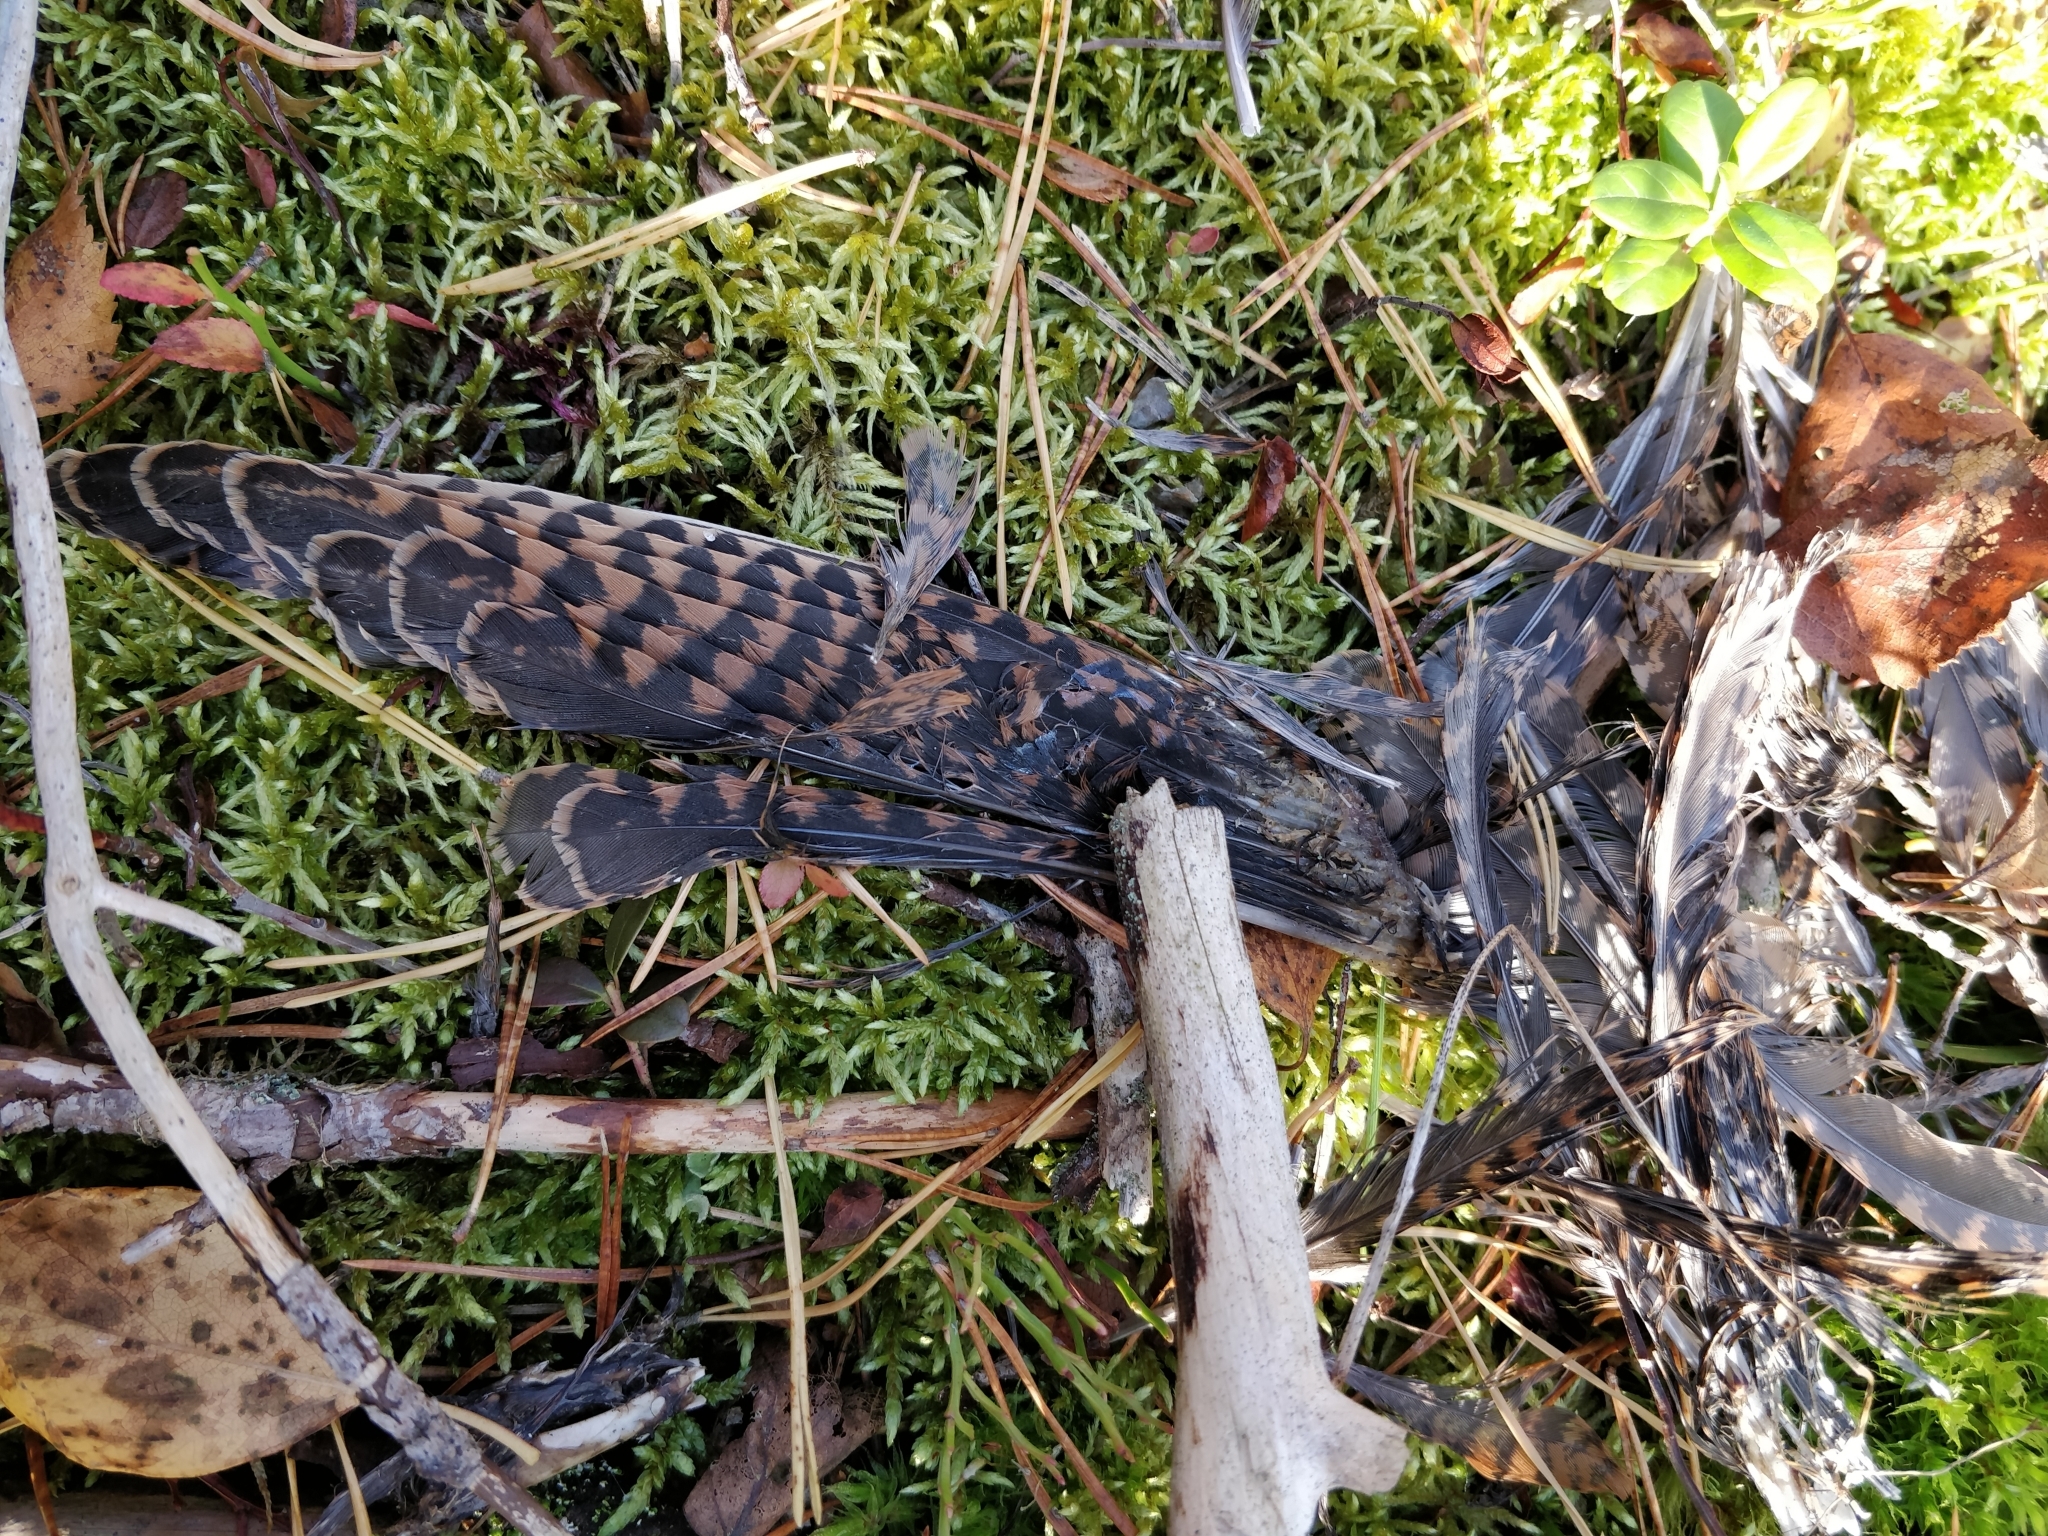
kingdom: Animalia
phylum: Chordata
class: Aves
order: Charadriiformes
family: Scolopacidae
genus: Scolopax
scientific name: Scolopax rusticola
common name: Eurasian woodcock
